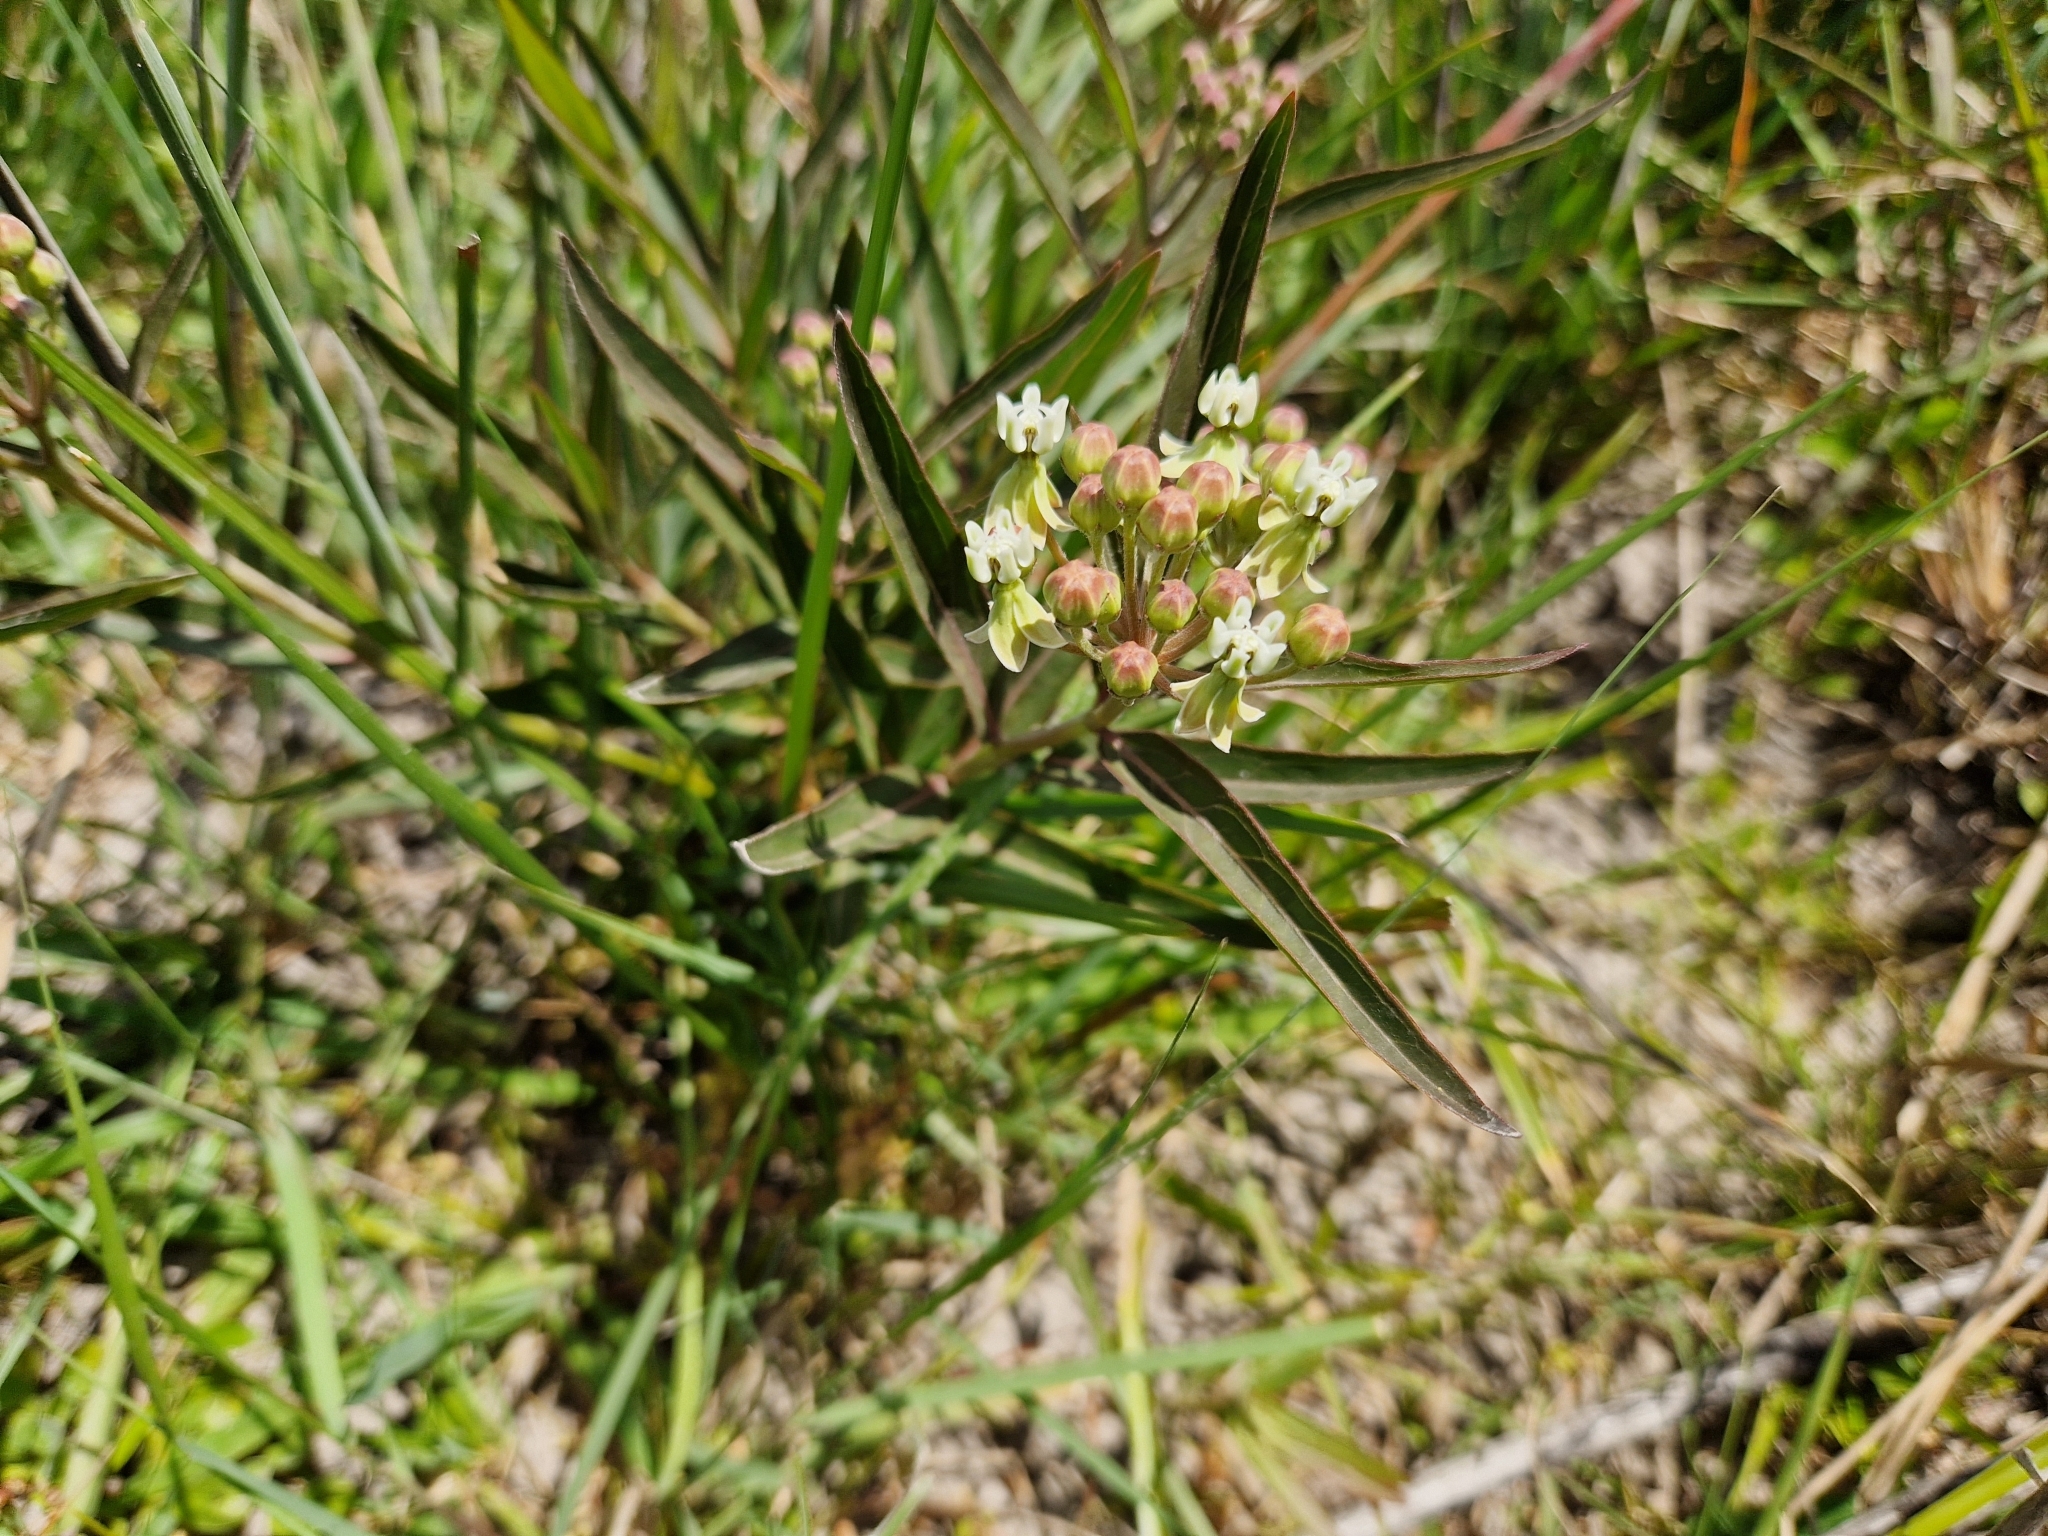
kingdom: Plantae
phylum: Tracheophyta
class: Magnoliopsida
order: Gentianales
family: Apocynaceae
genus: Asclepias
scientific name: Asclepias mellodora
